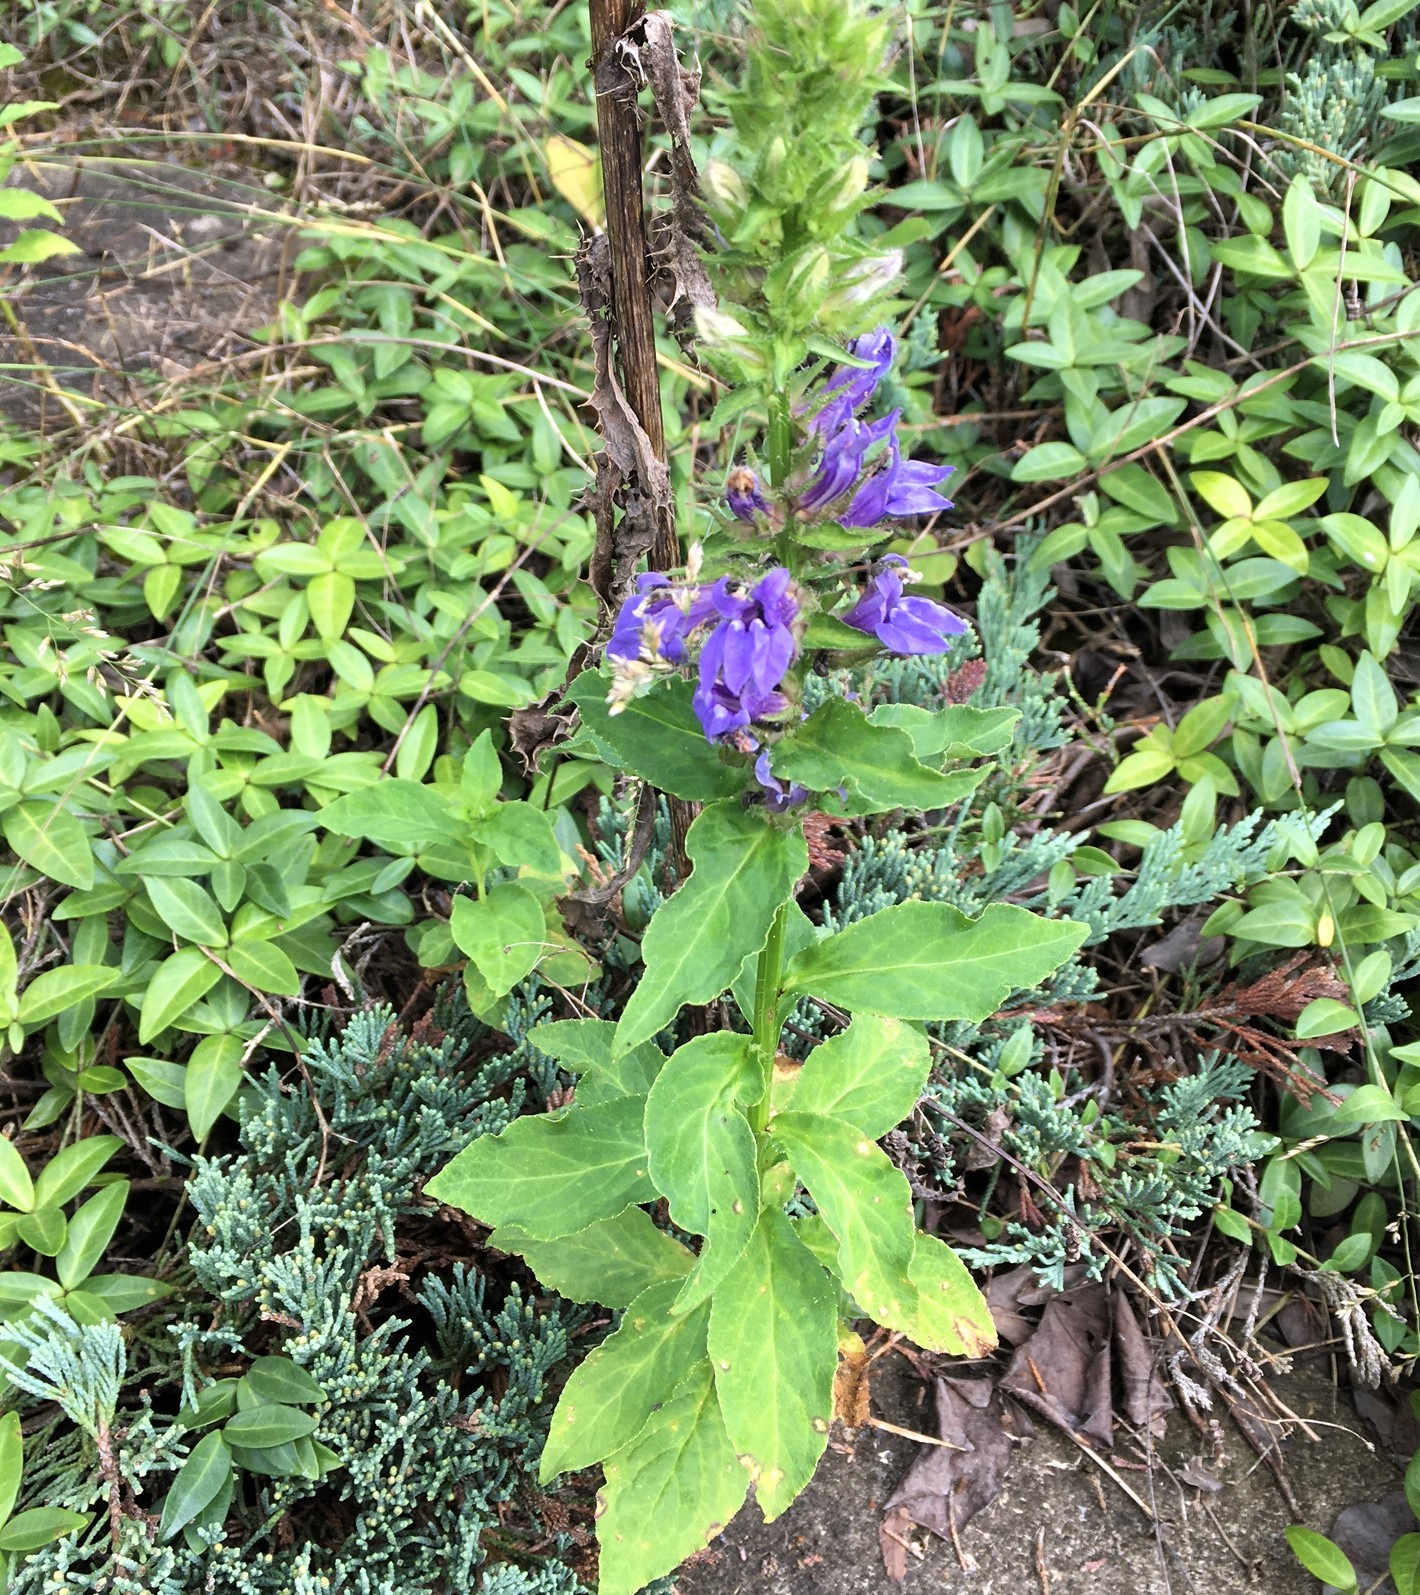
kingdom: Plantae
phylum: Tracheophyta
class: Magnoliopsida
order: Asterales
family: Campanulaceae
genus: Lobelia
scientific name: Lobelia siphilitica
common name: Great lobelia
